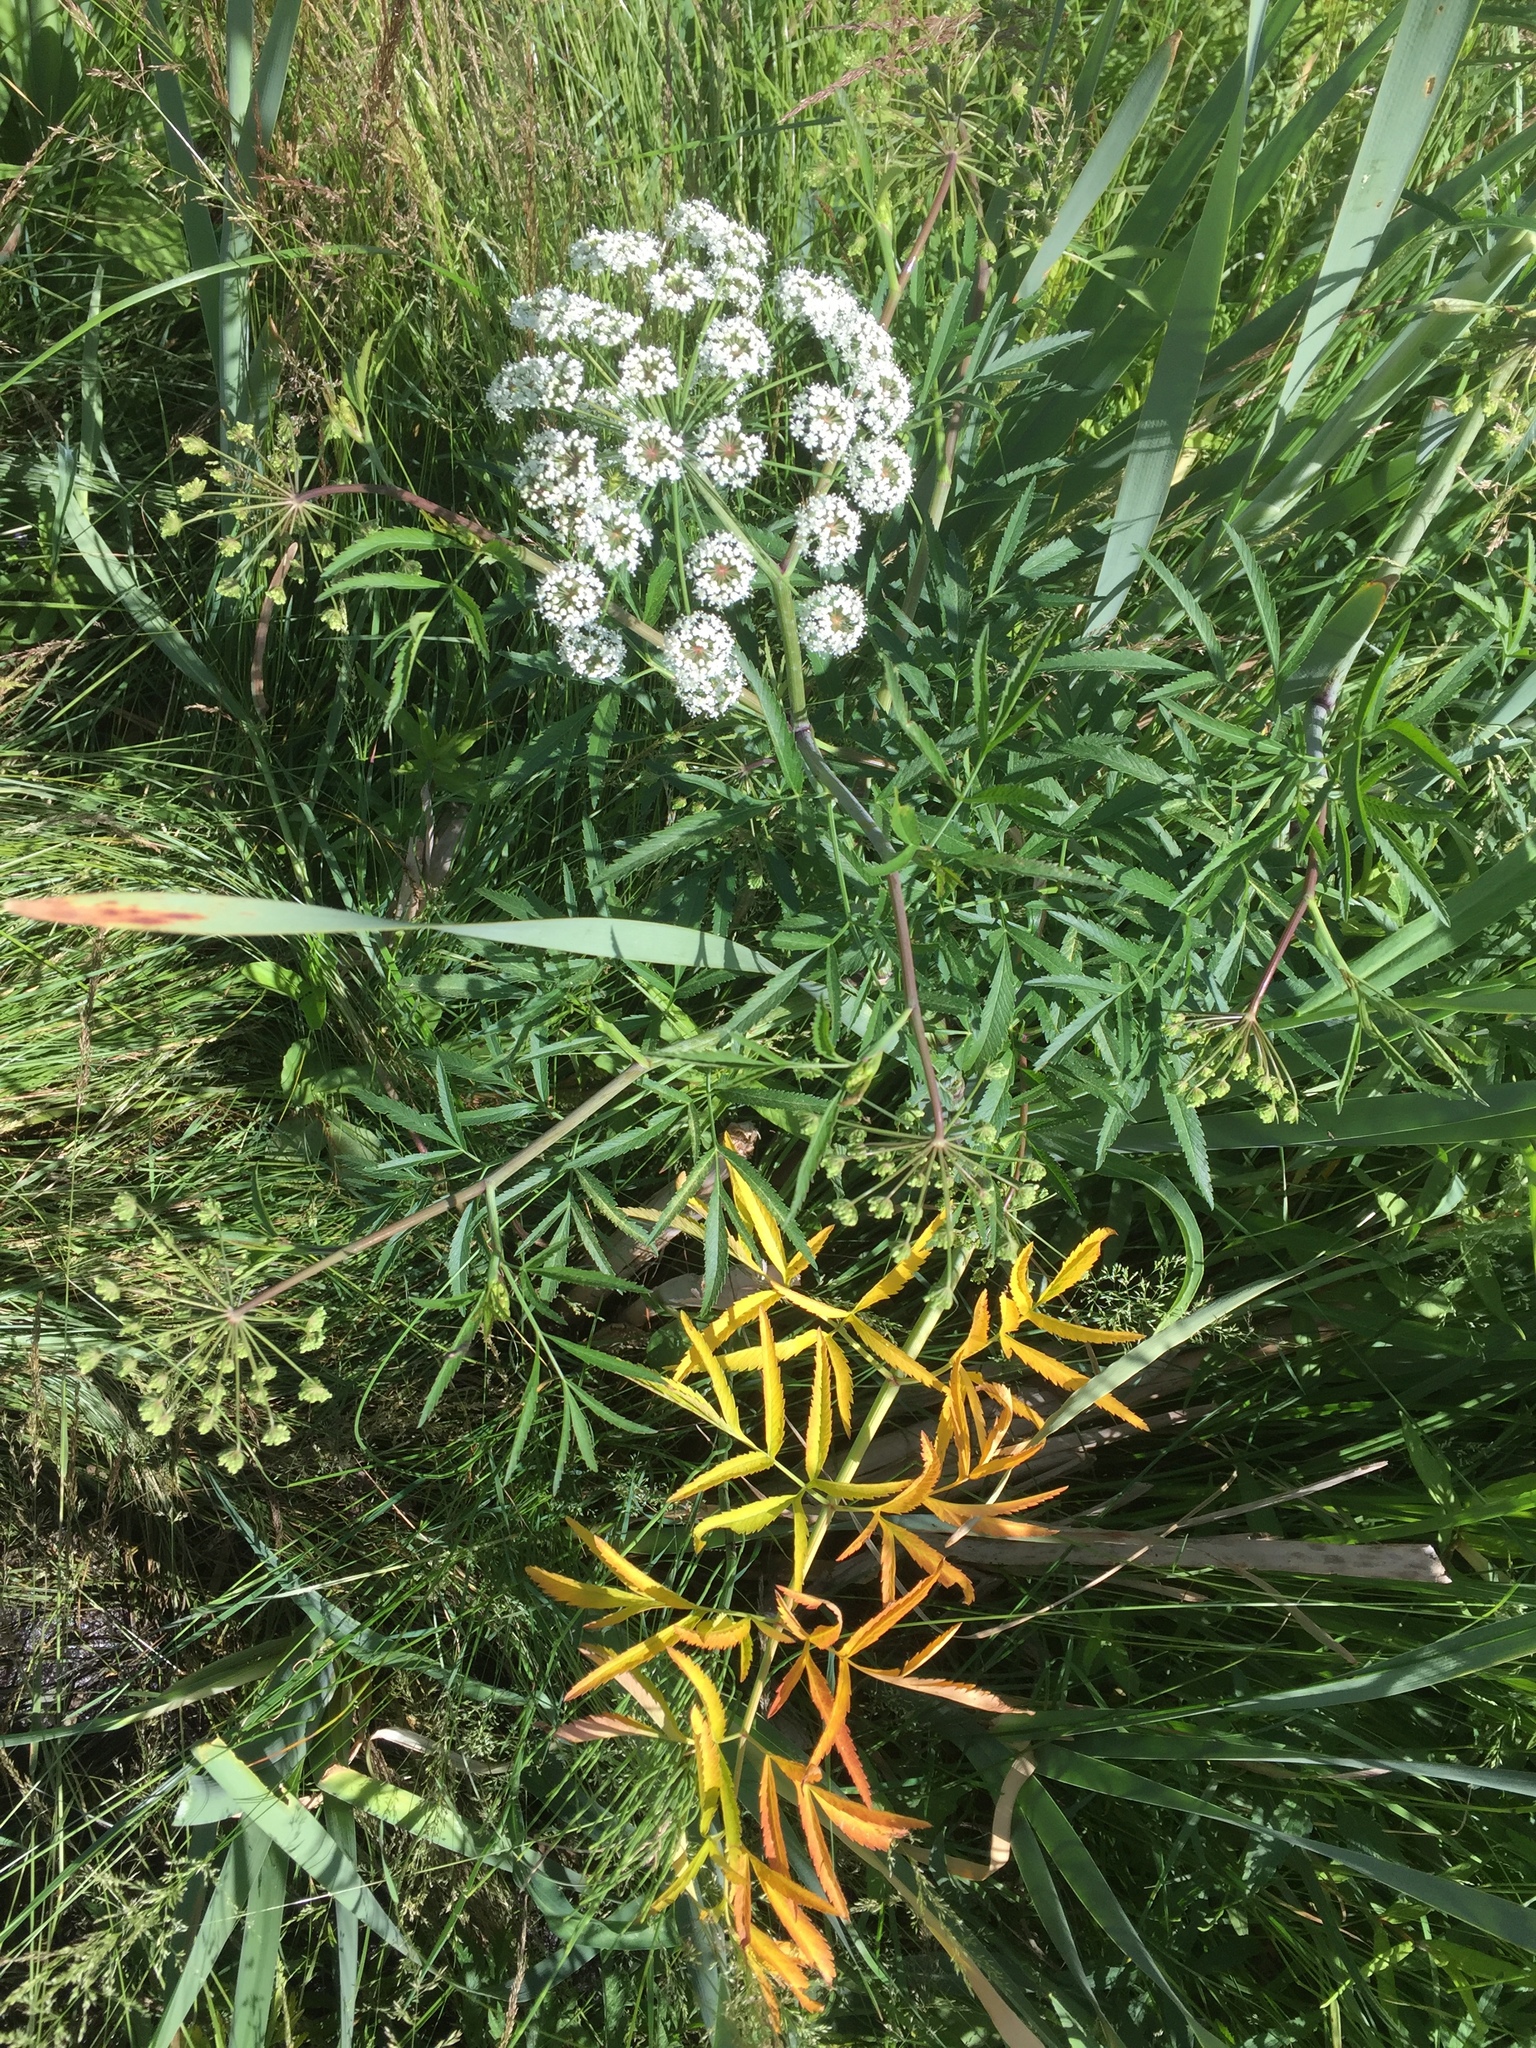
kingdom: Plantae
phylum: Tracheophyta
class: Magnoliopsida
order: Apiales
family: Apiaceae
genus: Cicuta
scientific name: Cicuta virosa
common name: Cowbane
